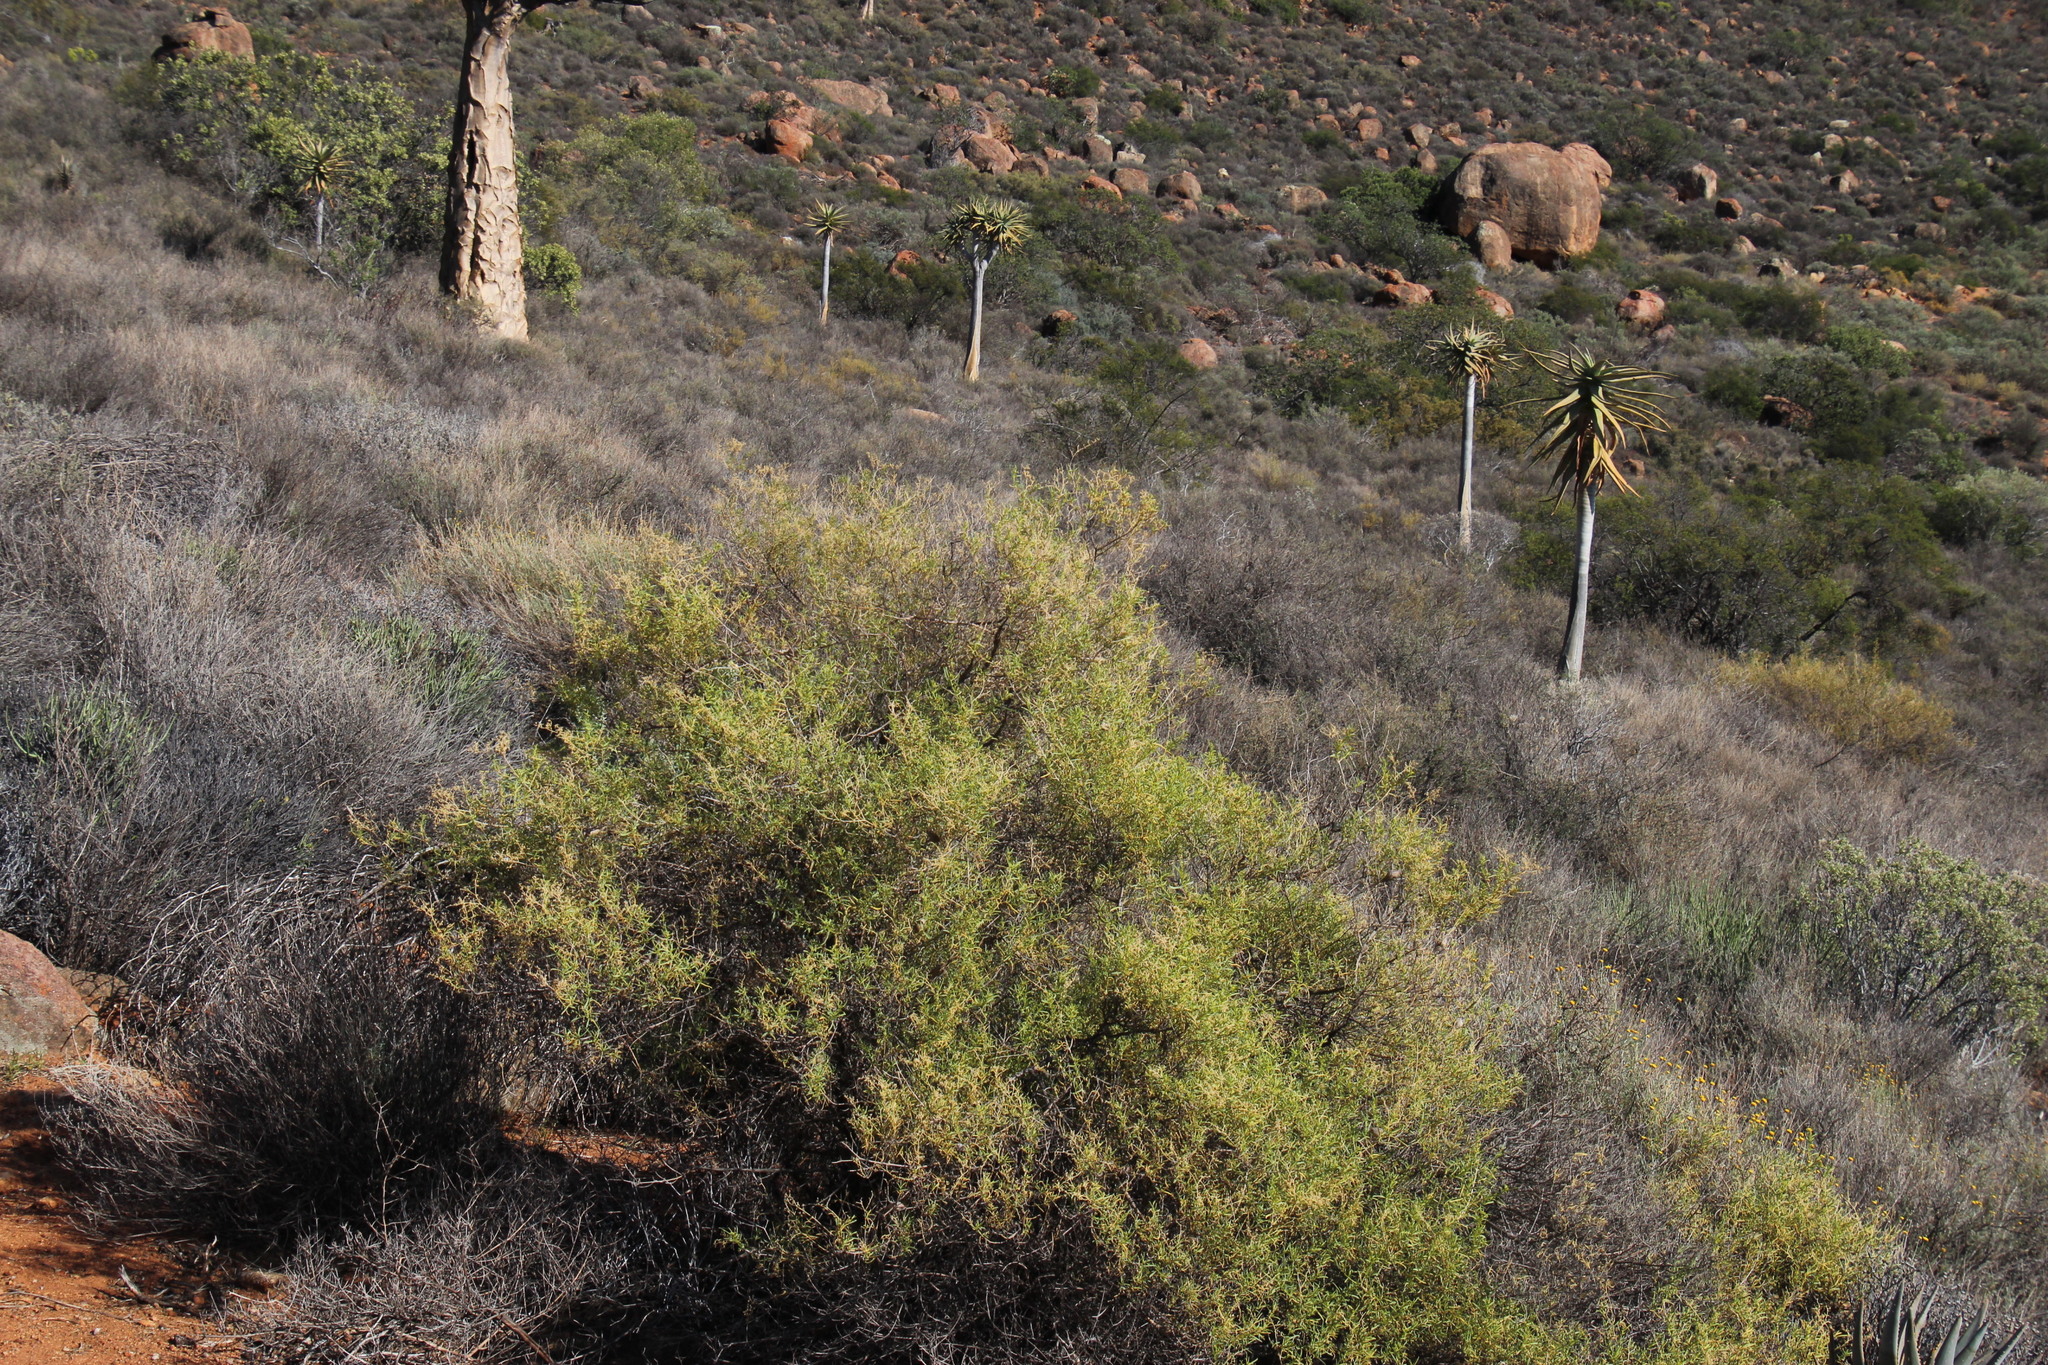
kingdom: Plantae
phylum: Tracheophyta
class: Magnoliopsida
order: Caryophyllales
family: Aizoaceae
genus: Aizoon
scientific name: Aizoon africanum
